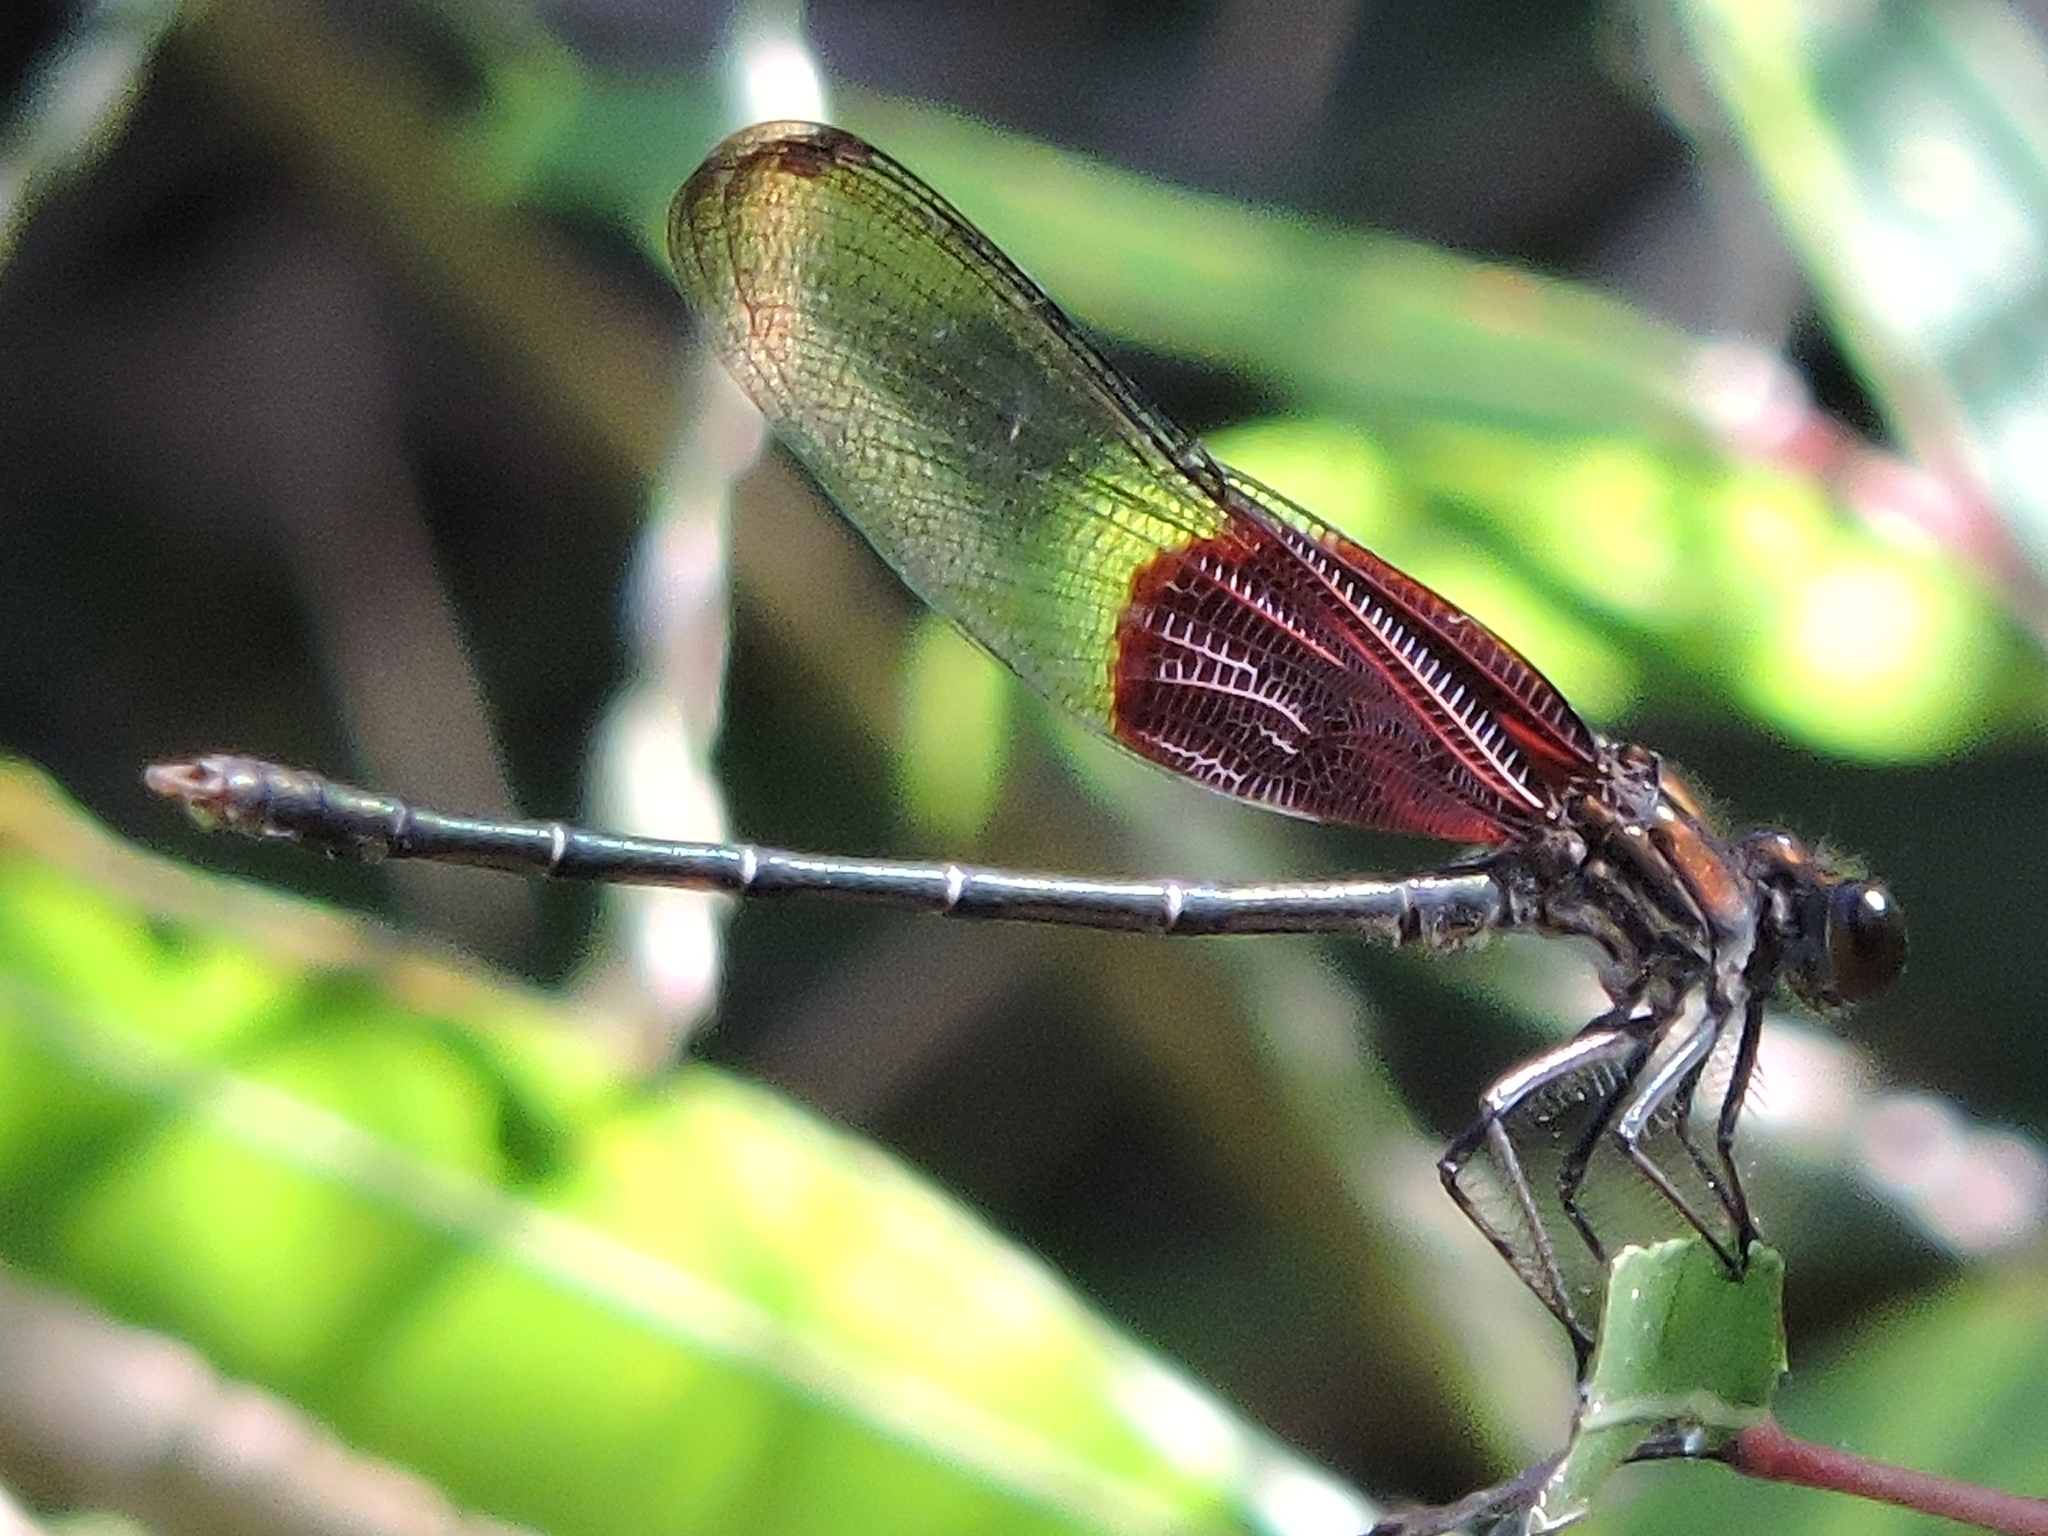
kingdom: Animalia
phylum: Arthropoda
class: Insecta
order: Odonata
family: Calopterygidae
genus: Hetaerina
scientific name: Hetaerina americana
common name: American rubyspot
